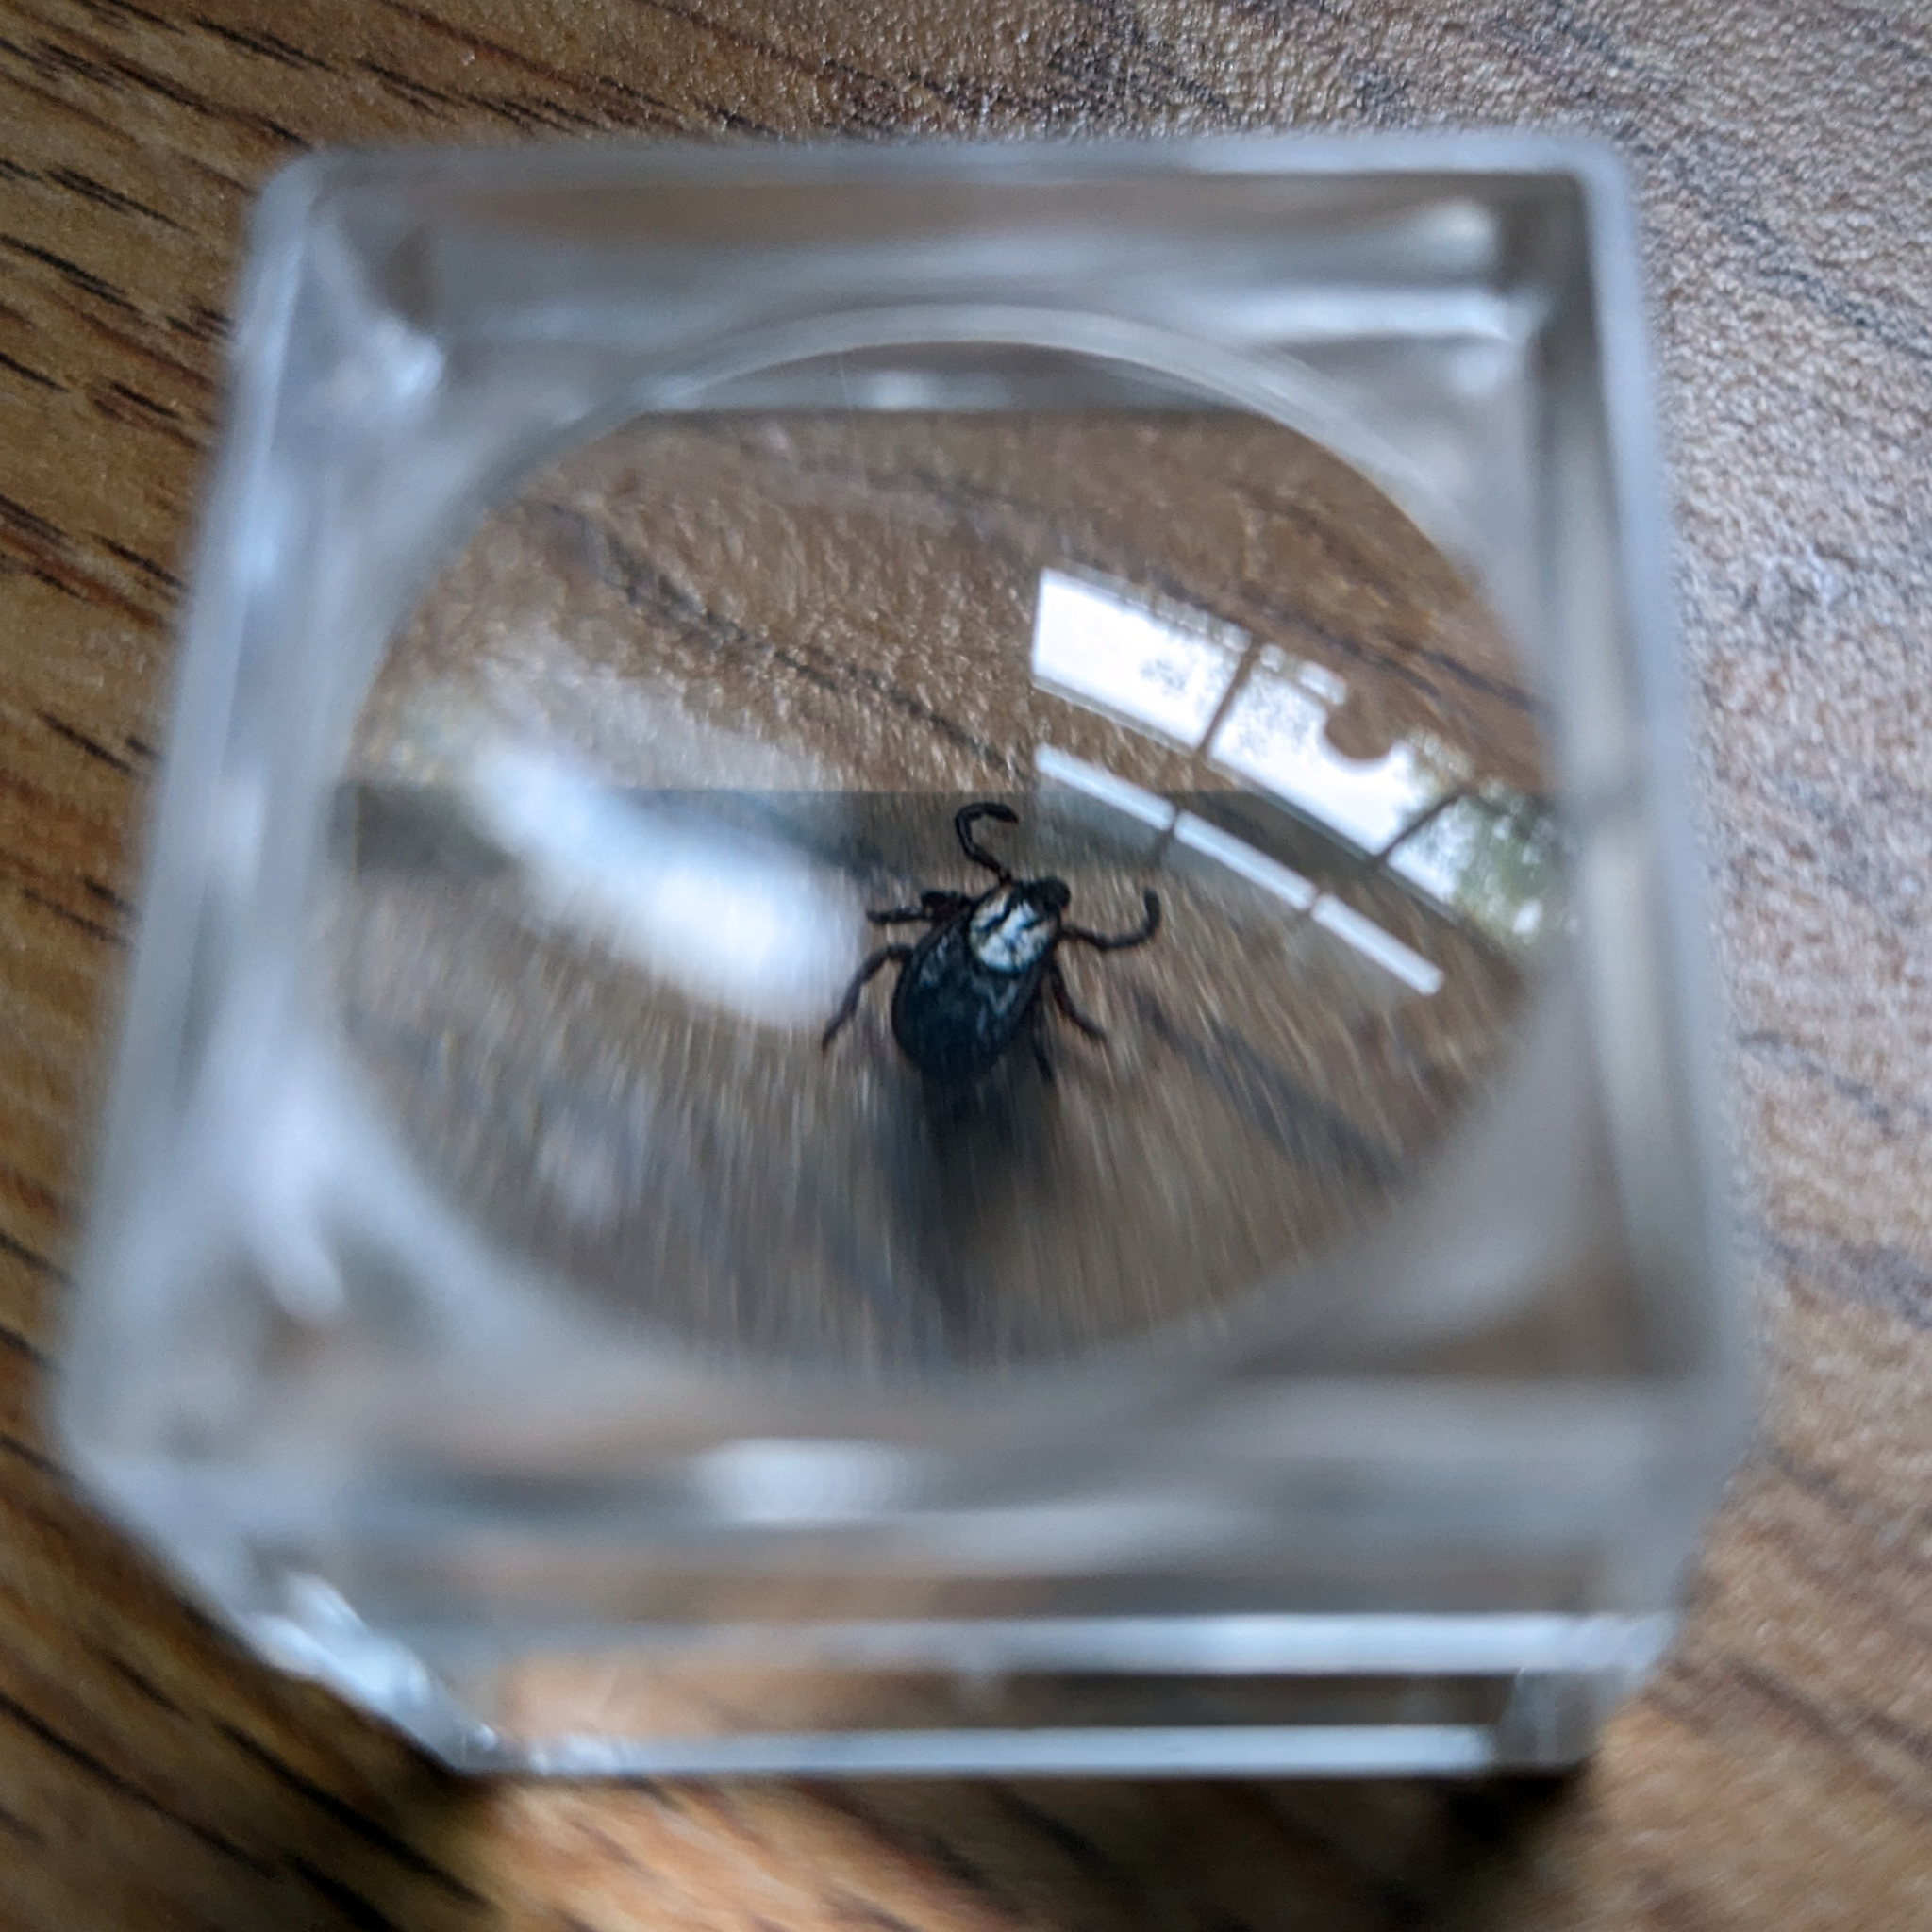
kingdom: Animalia
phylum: Arthropoda
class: Arachnida
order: Ixodida
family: Ixodidae
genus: Dermacentor
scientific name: Dermacentor variabilis
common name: American dog tick
